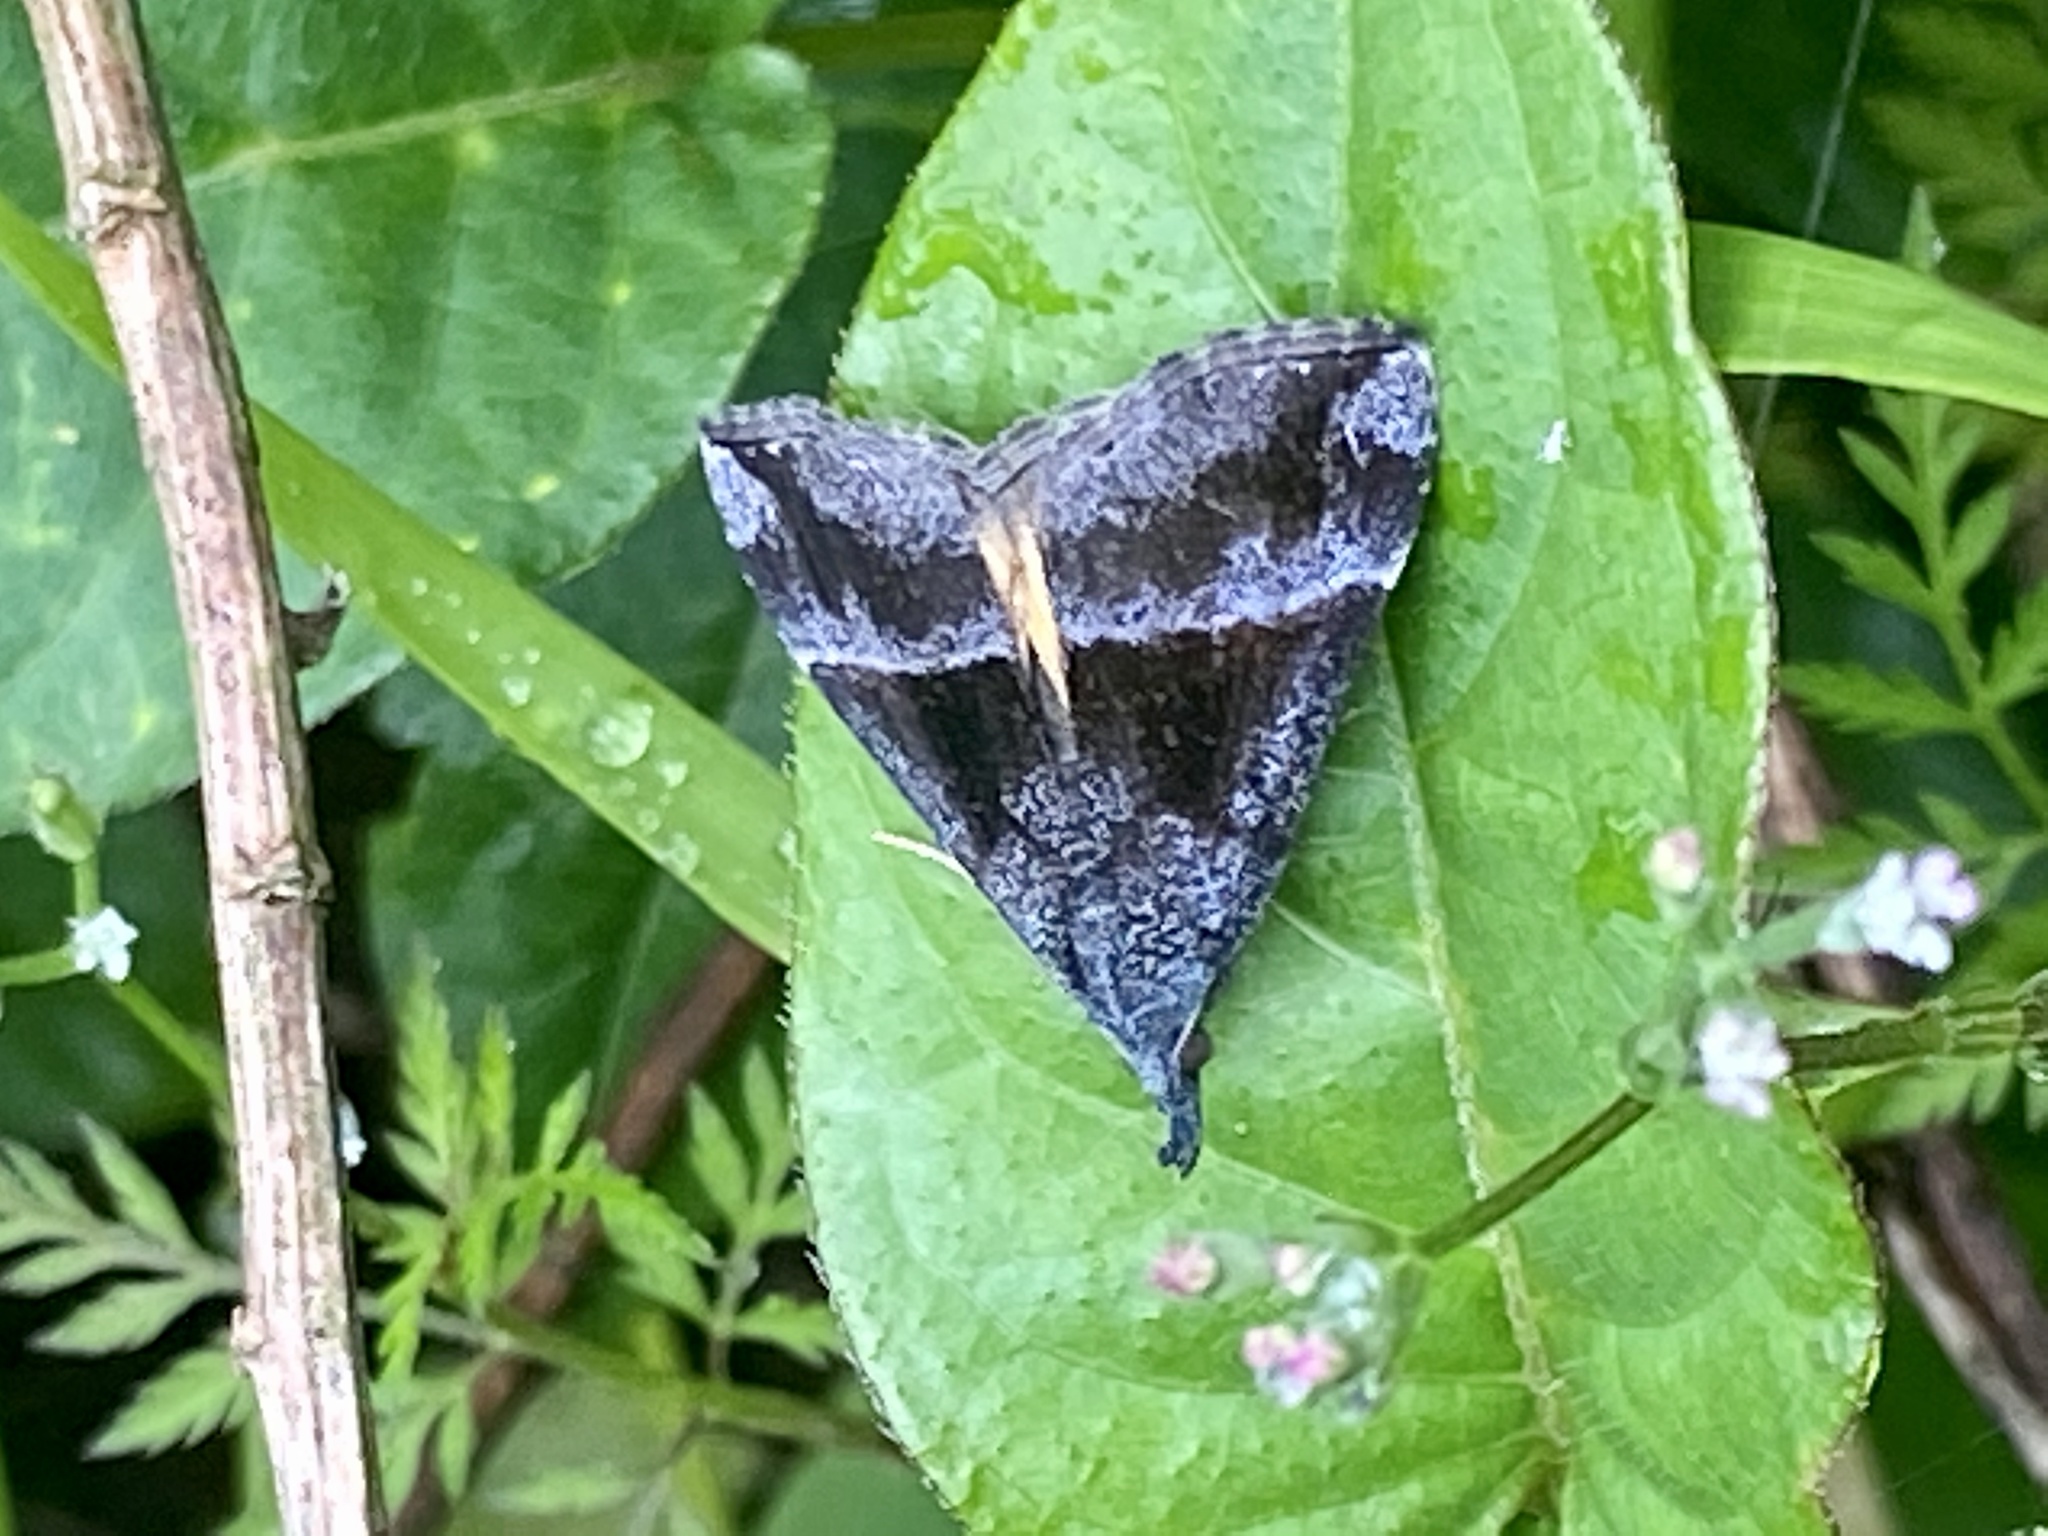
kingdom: Animalia
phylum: Arthropoda
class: Insecta
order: Lepidoptera
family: Erebidae
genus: Hypena
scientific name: Hypena amica
